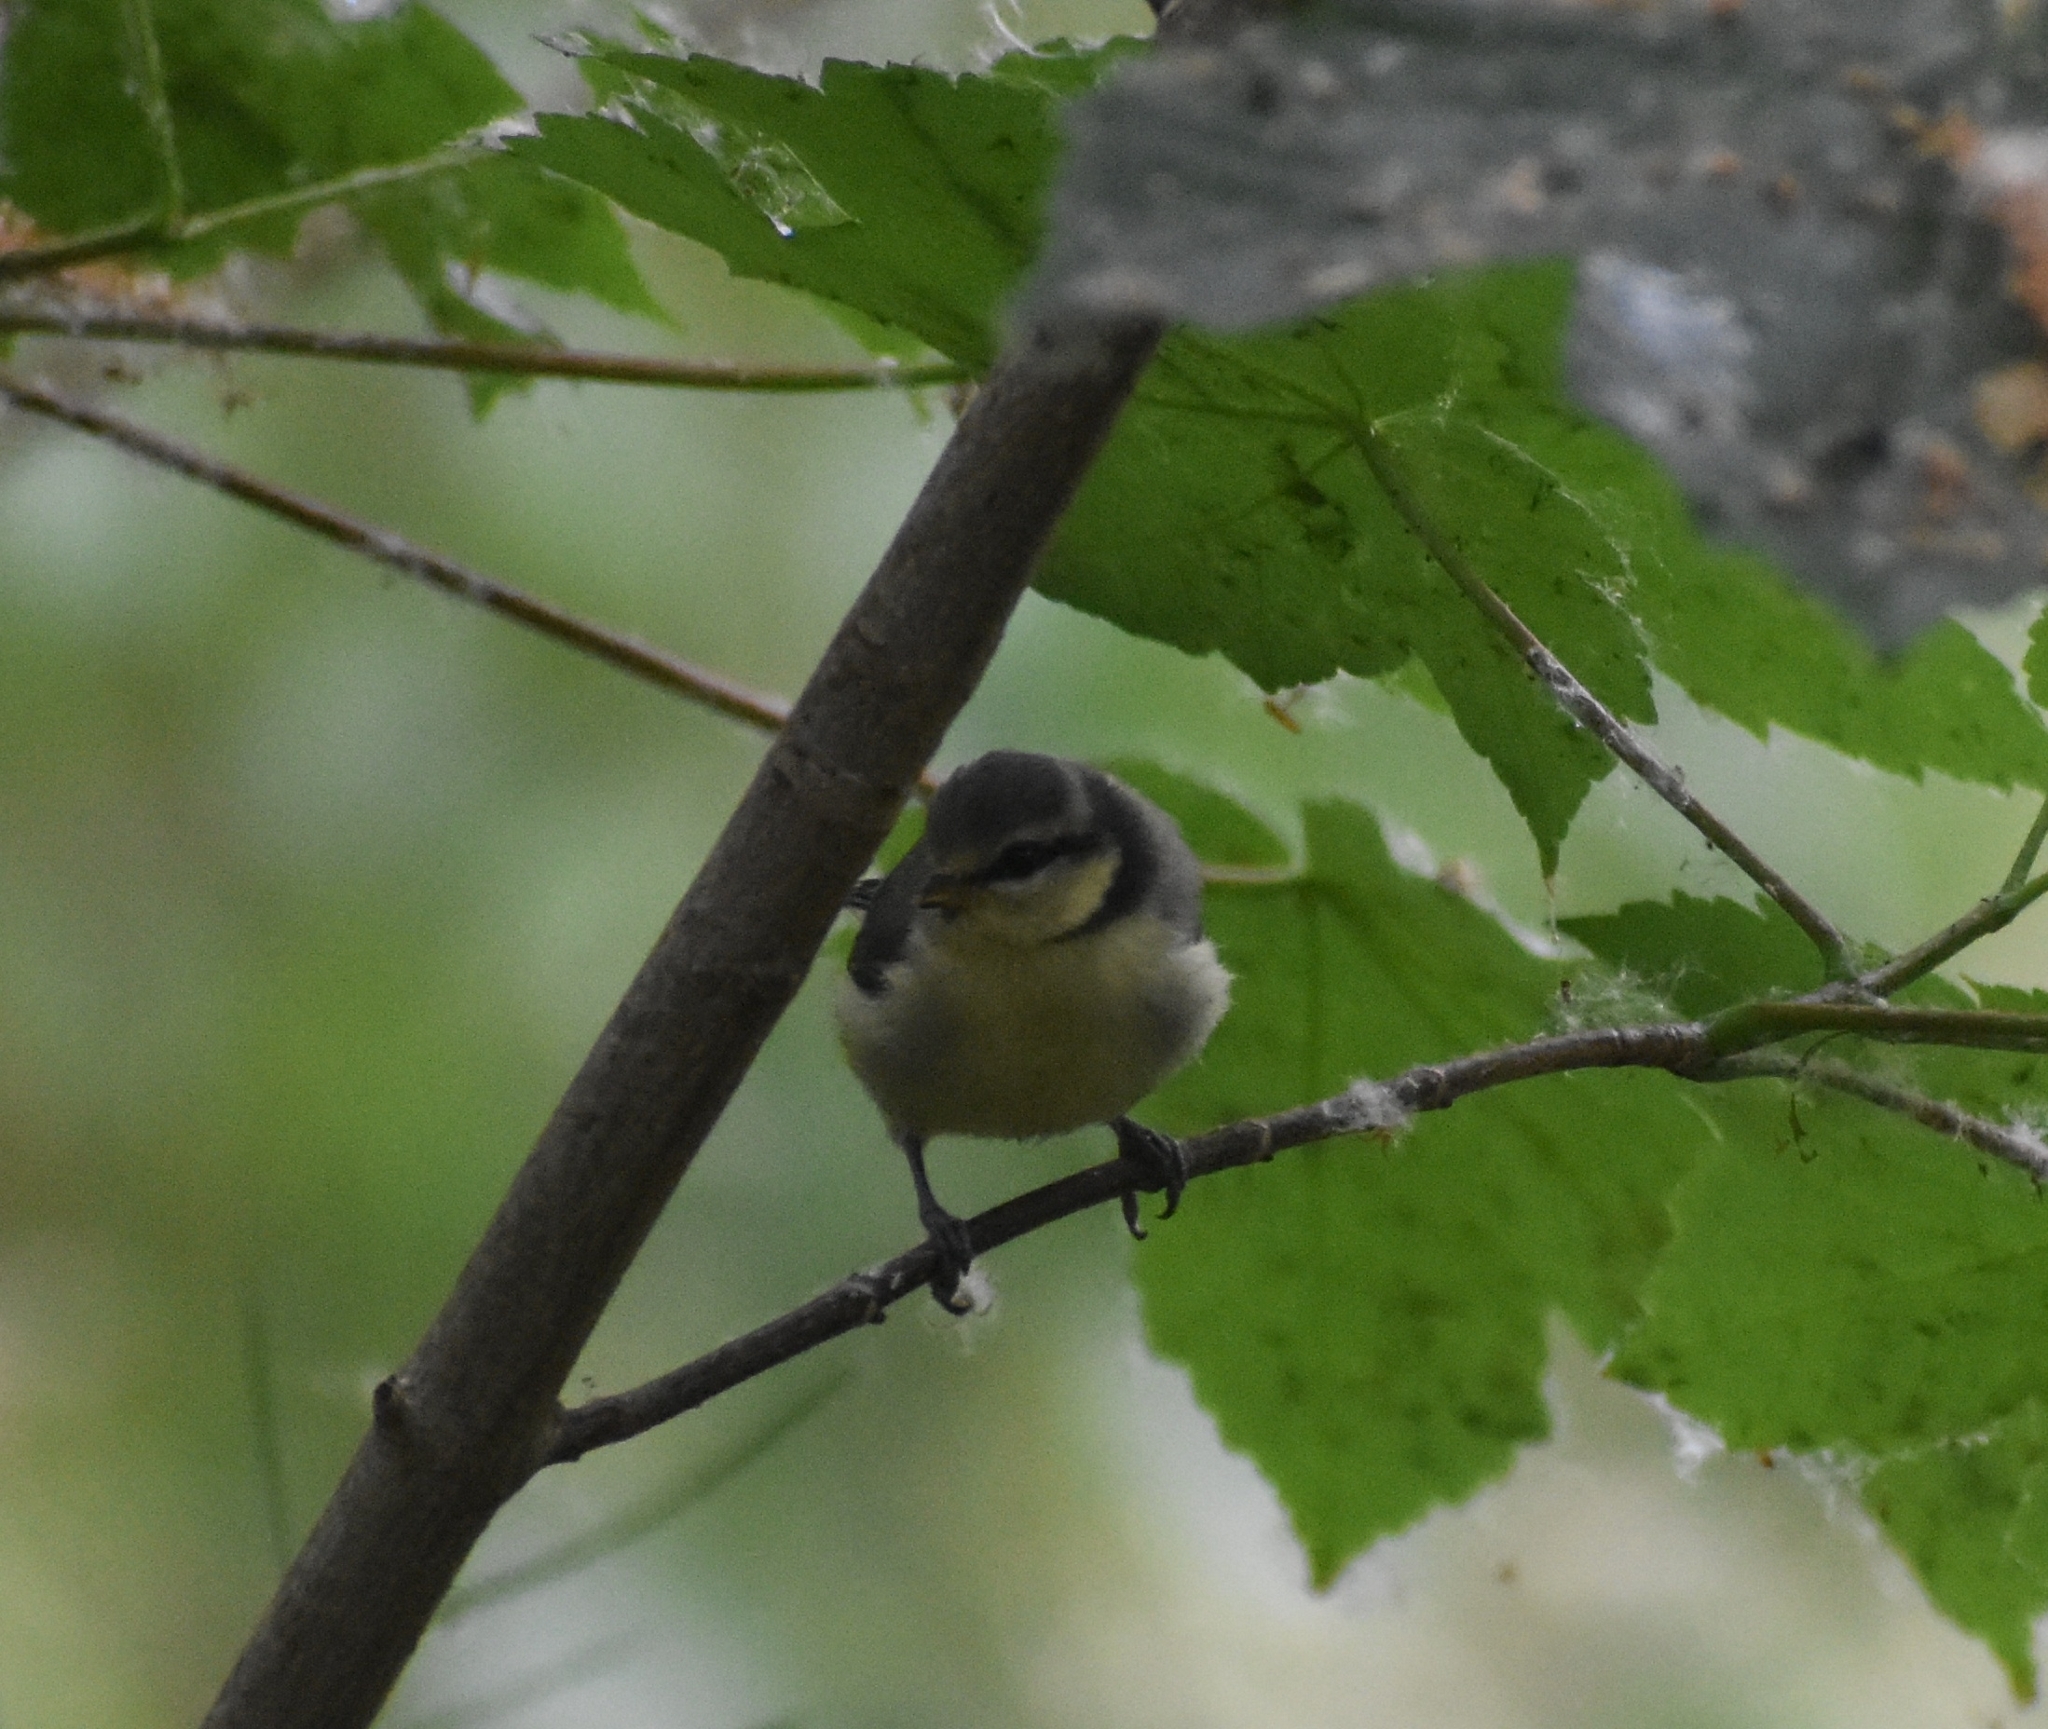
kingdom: Animalia
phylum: Chordata
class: Aves
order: Passeriformes
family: Paridae
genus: Cyanistes
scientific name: Cyanistes caeruleus
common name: Eurasian blue tit
